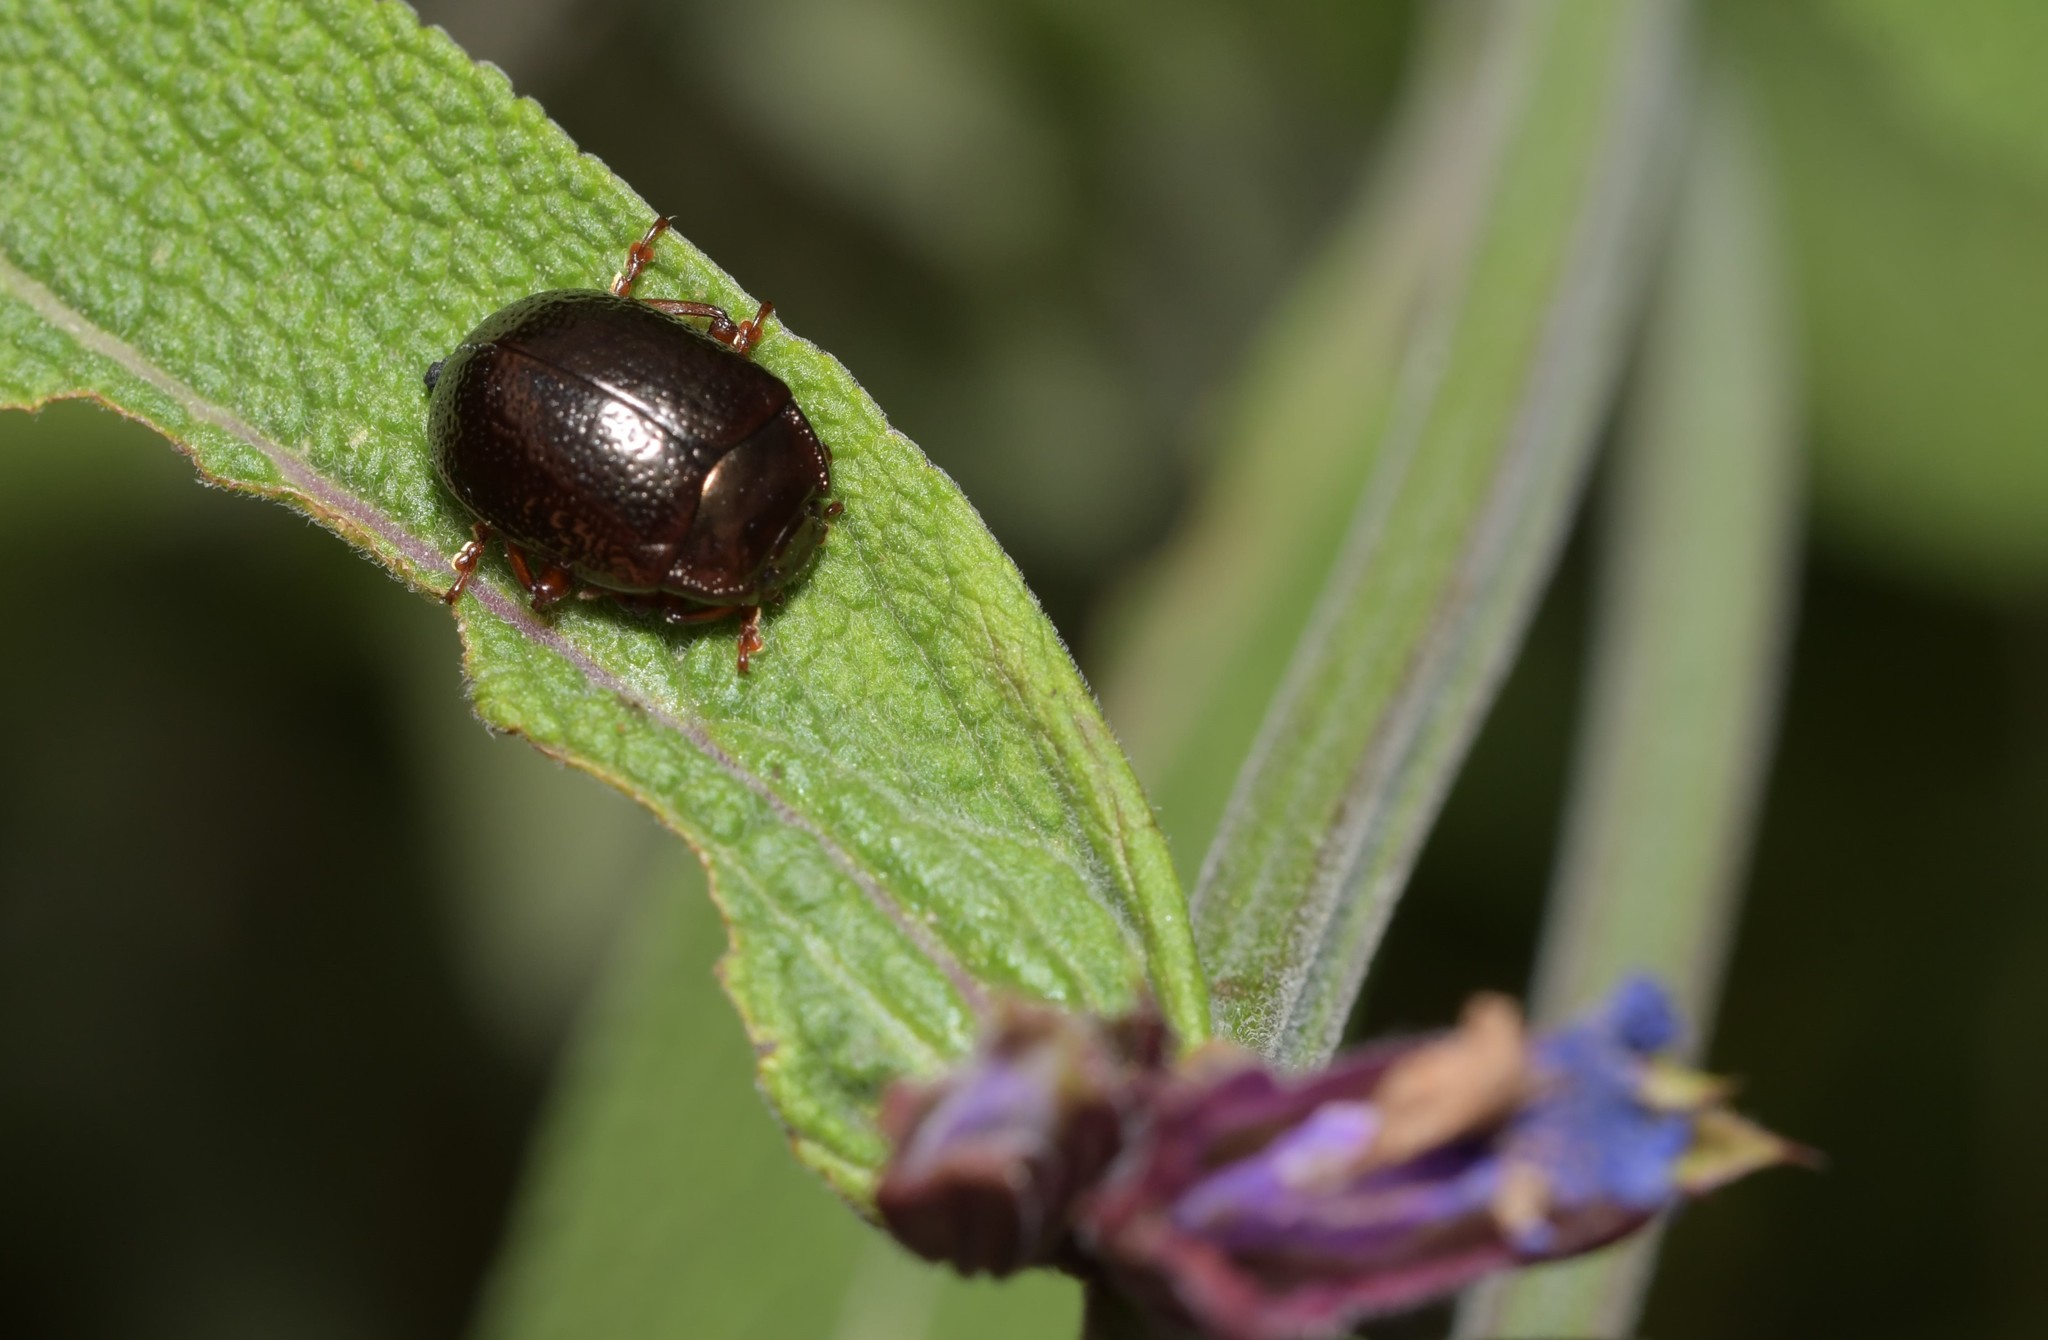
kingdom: Animalia
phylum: Arthropoda
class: Insecta
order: Coleoptera
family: Chrysomelidae
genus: Chrysolina
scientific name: Chrysolina bankii
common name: Leaf beetle
